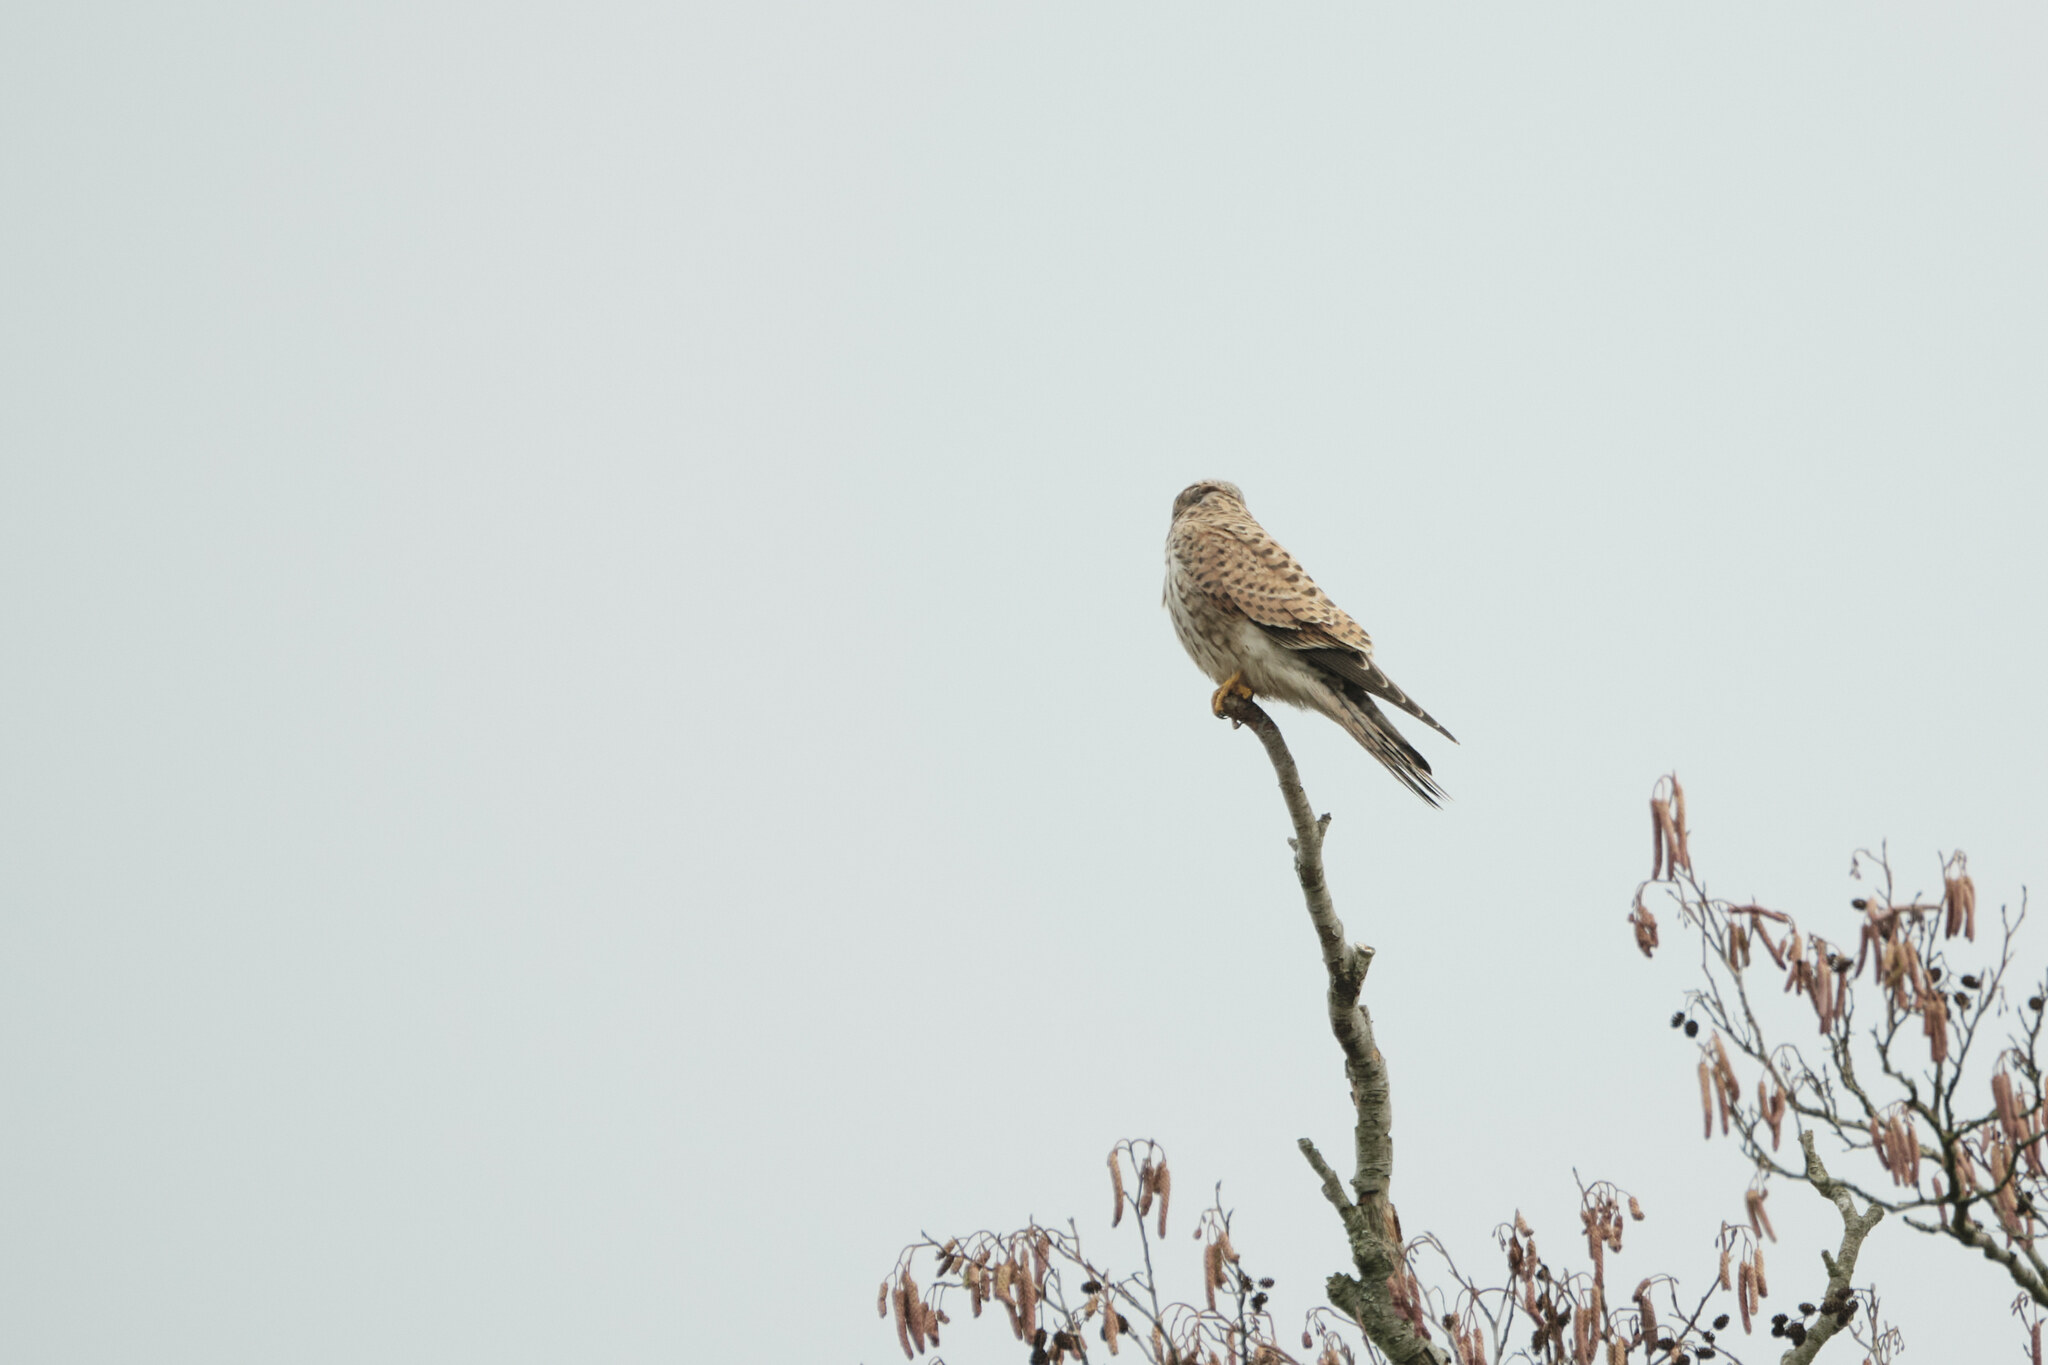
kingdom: Animalia
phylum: Chordata
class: Aves
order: Falconiformes
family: Falconidae
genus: Falco
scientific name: Falco tinnunculus
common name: Common kestrel
